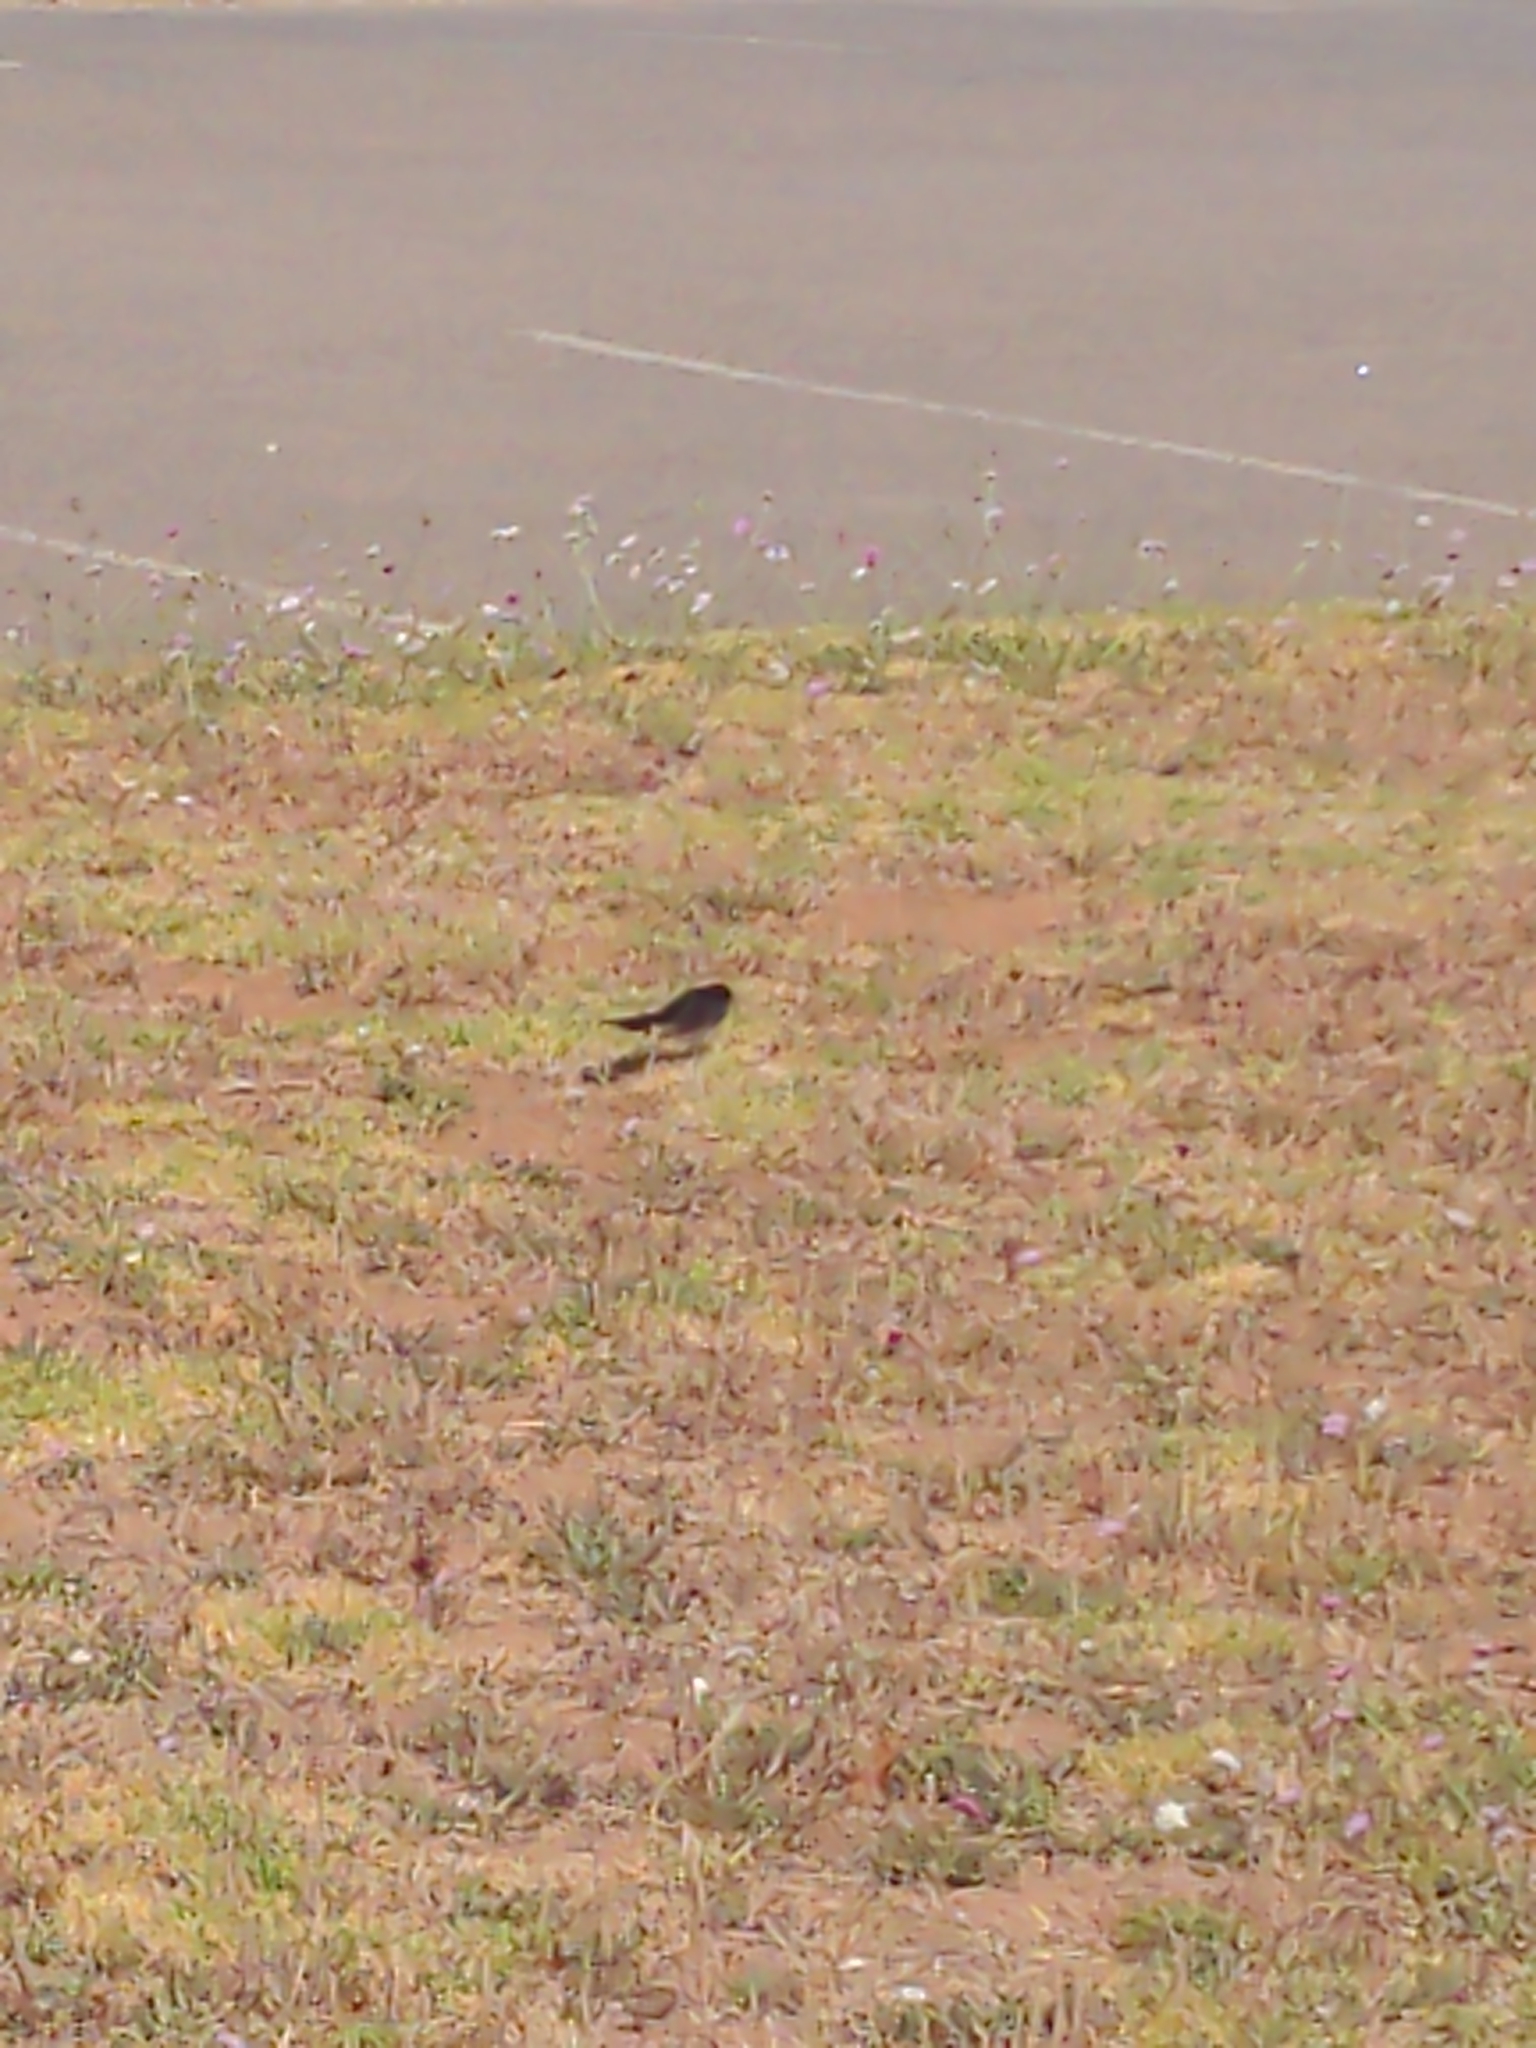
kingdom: Animalia
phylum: Chordata
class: Aves
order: Passeriformes
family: Rhipiduridae
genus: Rhipidura
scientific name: Rhipidura leucophrys
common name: Willie wagtail
